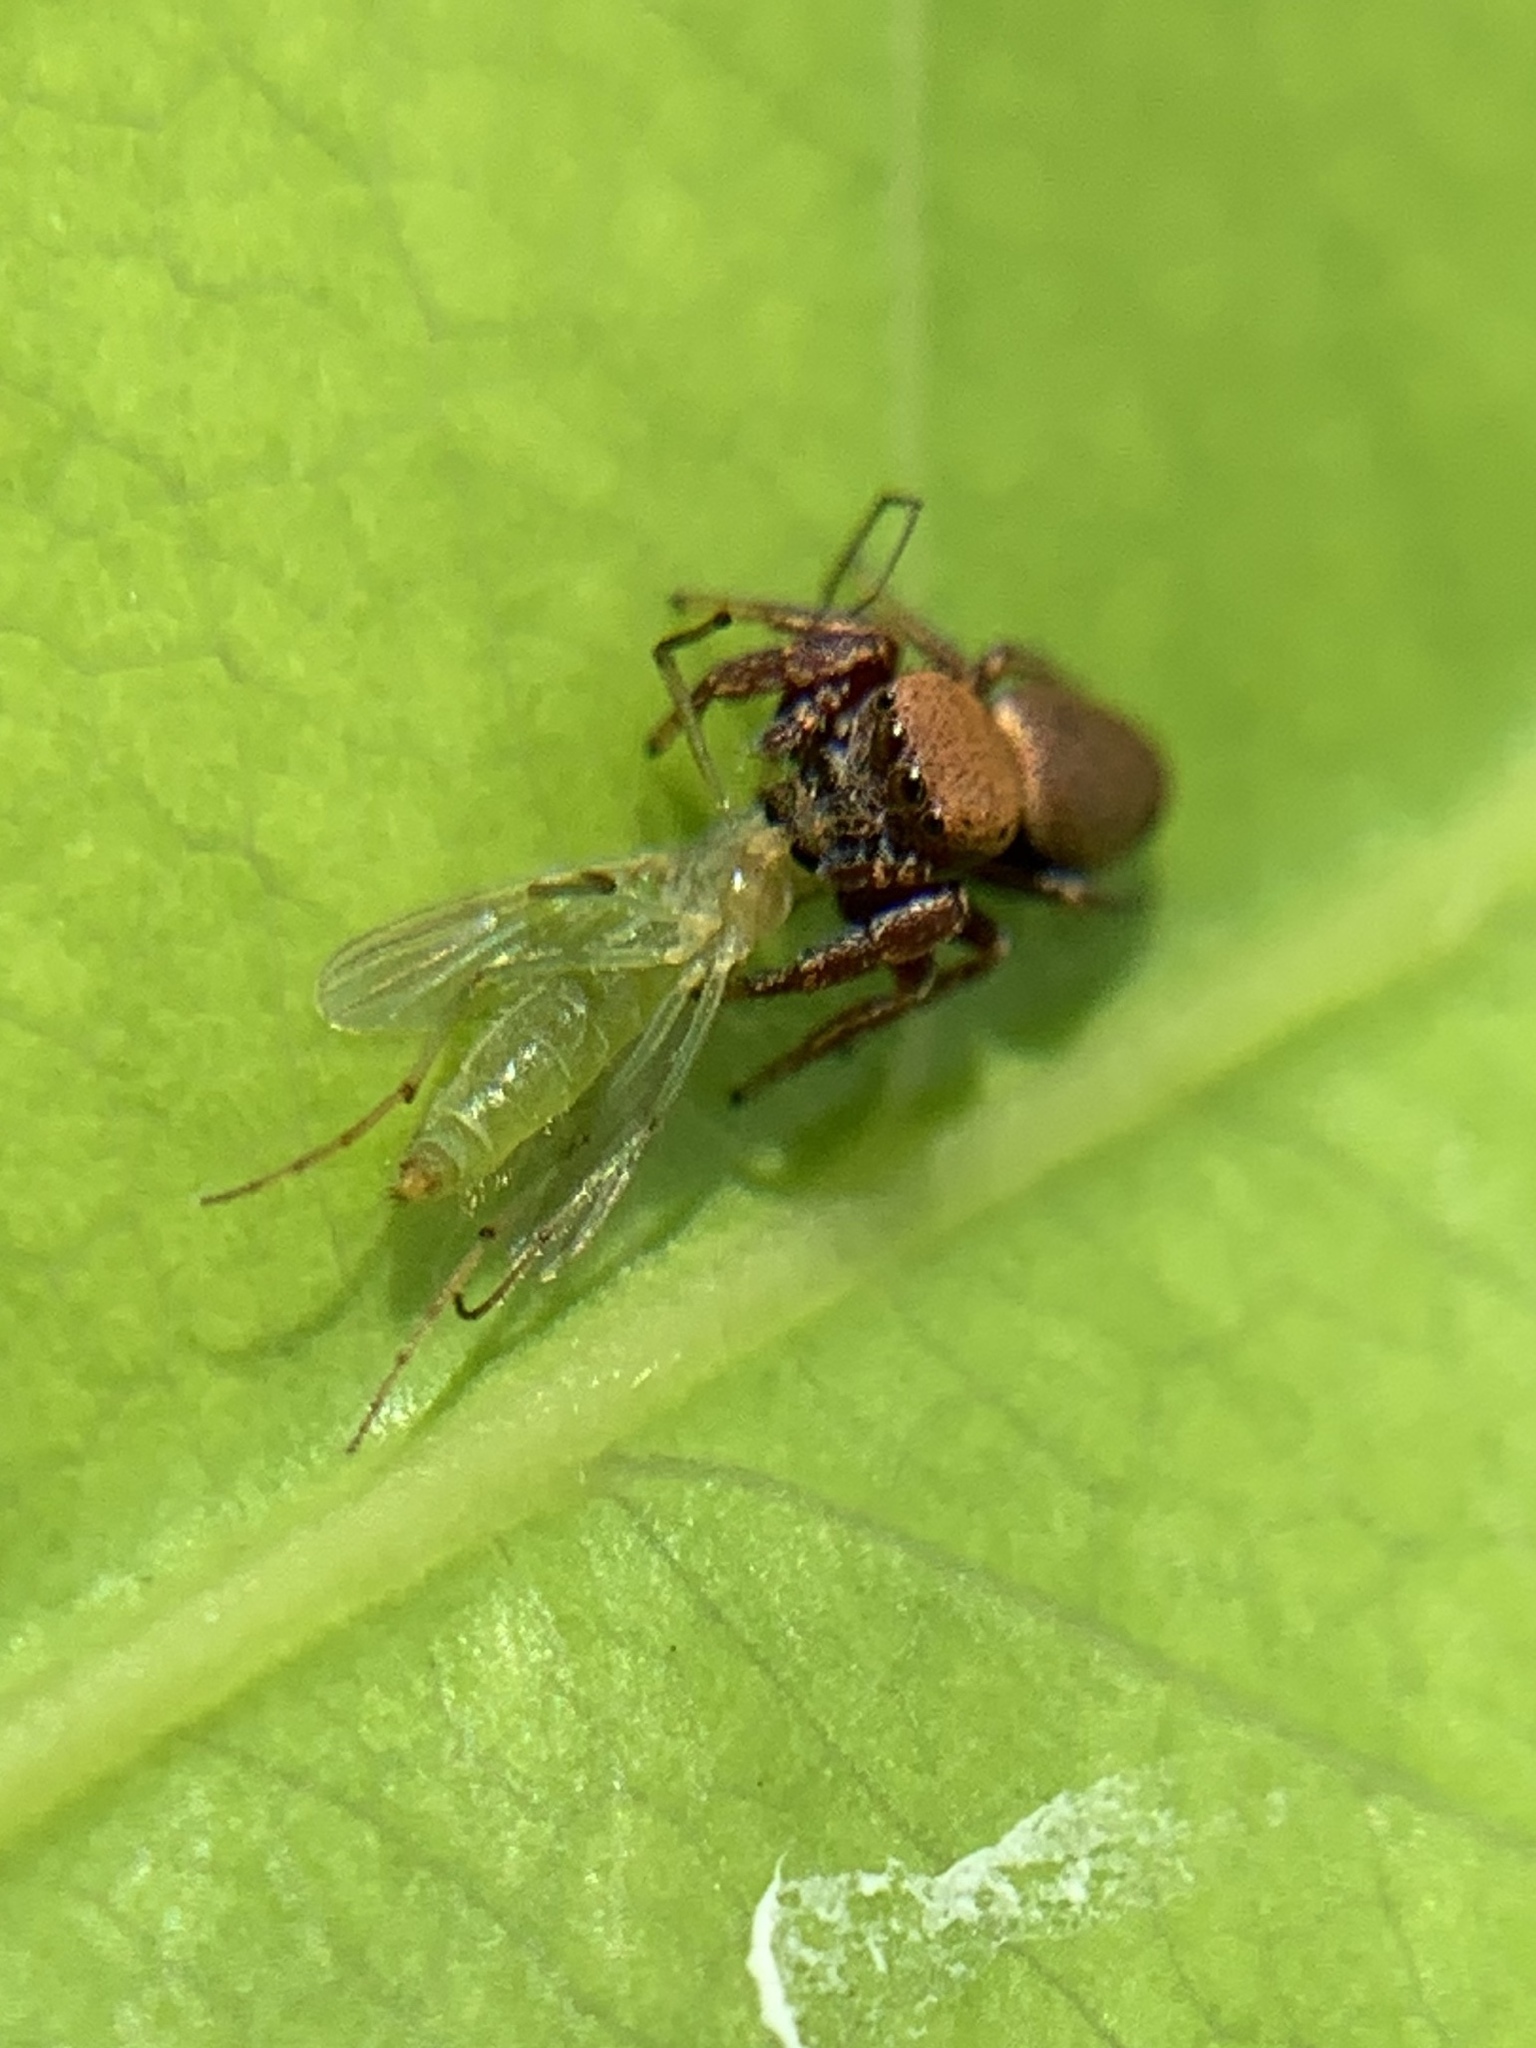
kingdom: Animalia
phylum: Arthropoda
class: Arachnida
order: Araneae
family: Salticidae
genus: Beata
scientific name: Beata wickhami
